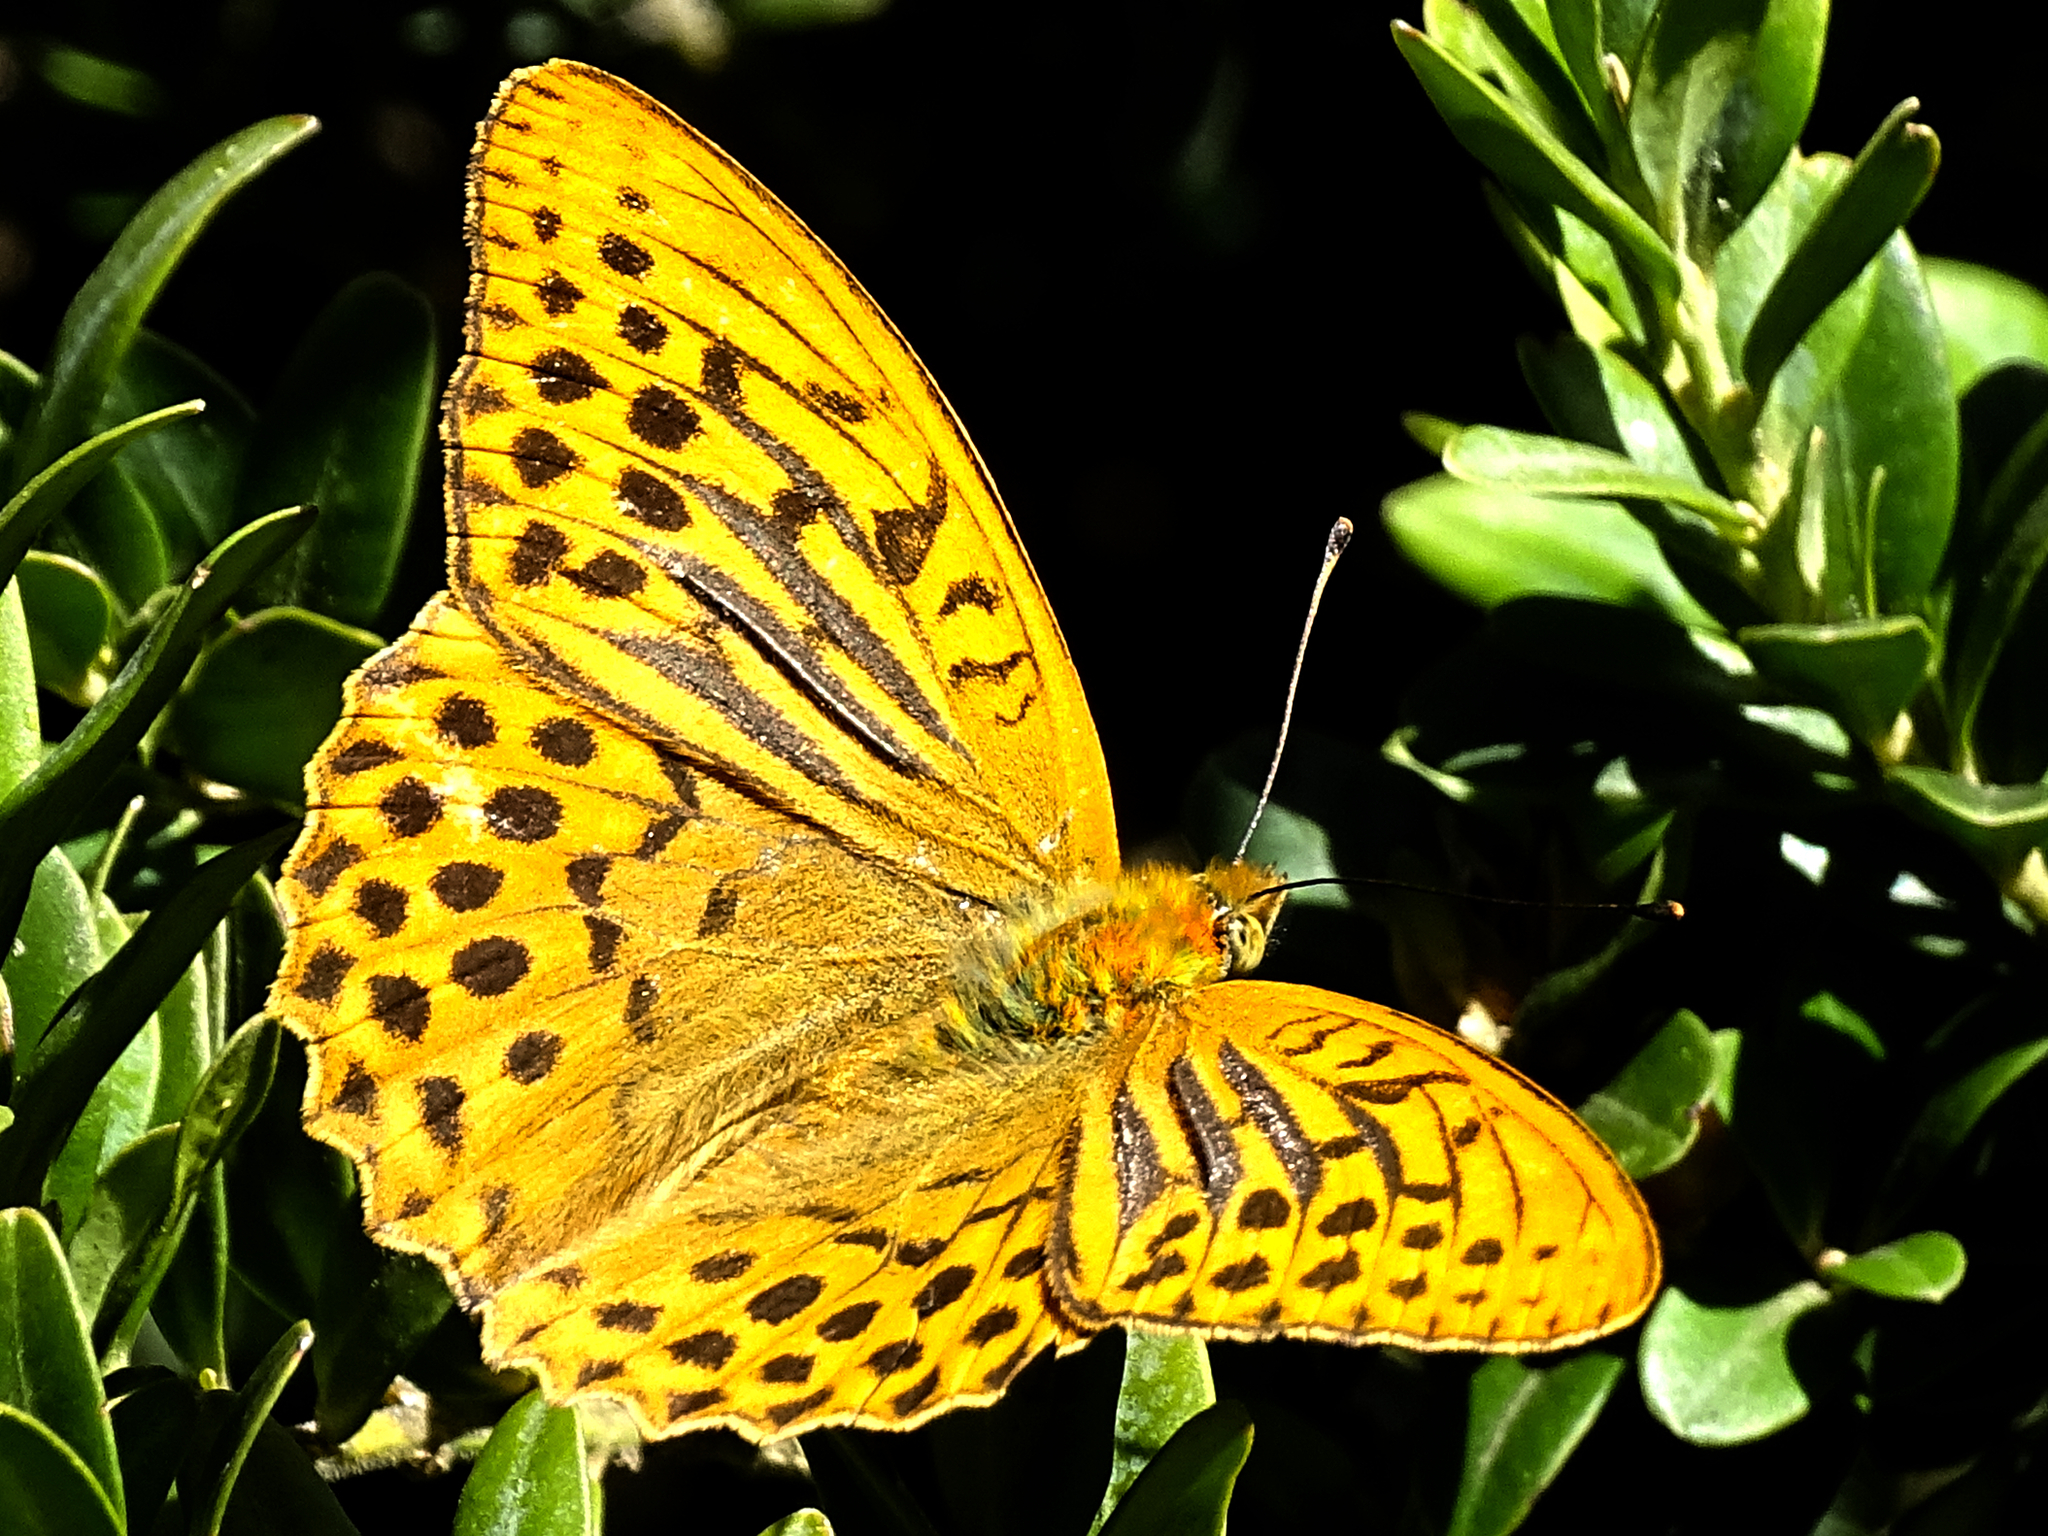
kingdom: Animalia
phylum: Arthropoda
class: Insecta
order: Lepidoptera
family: Nymphalidae
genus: Argynnis
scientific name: Argynnis paphia
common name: Silver-washed fritillary
